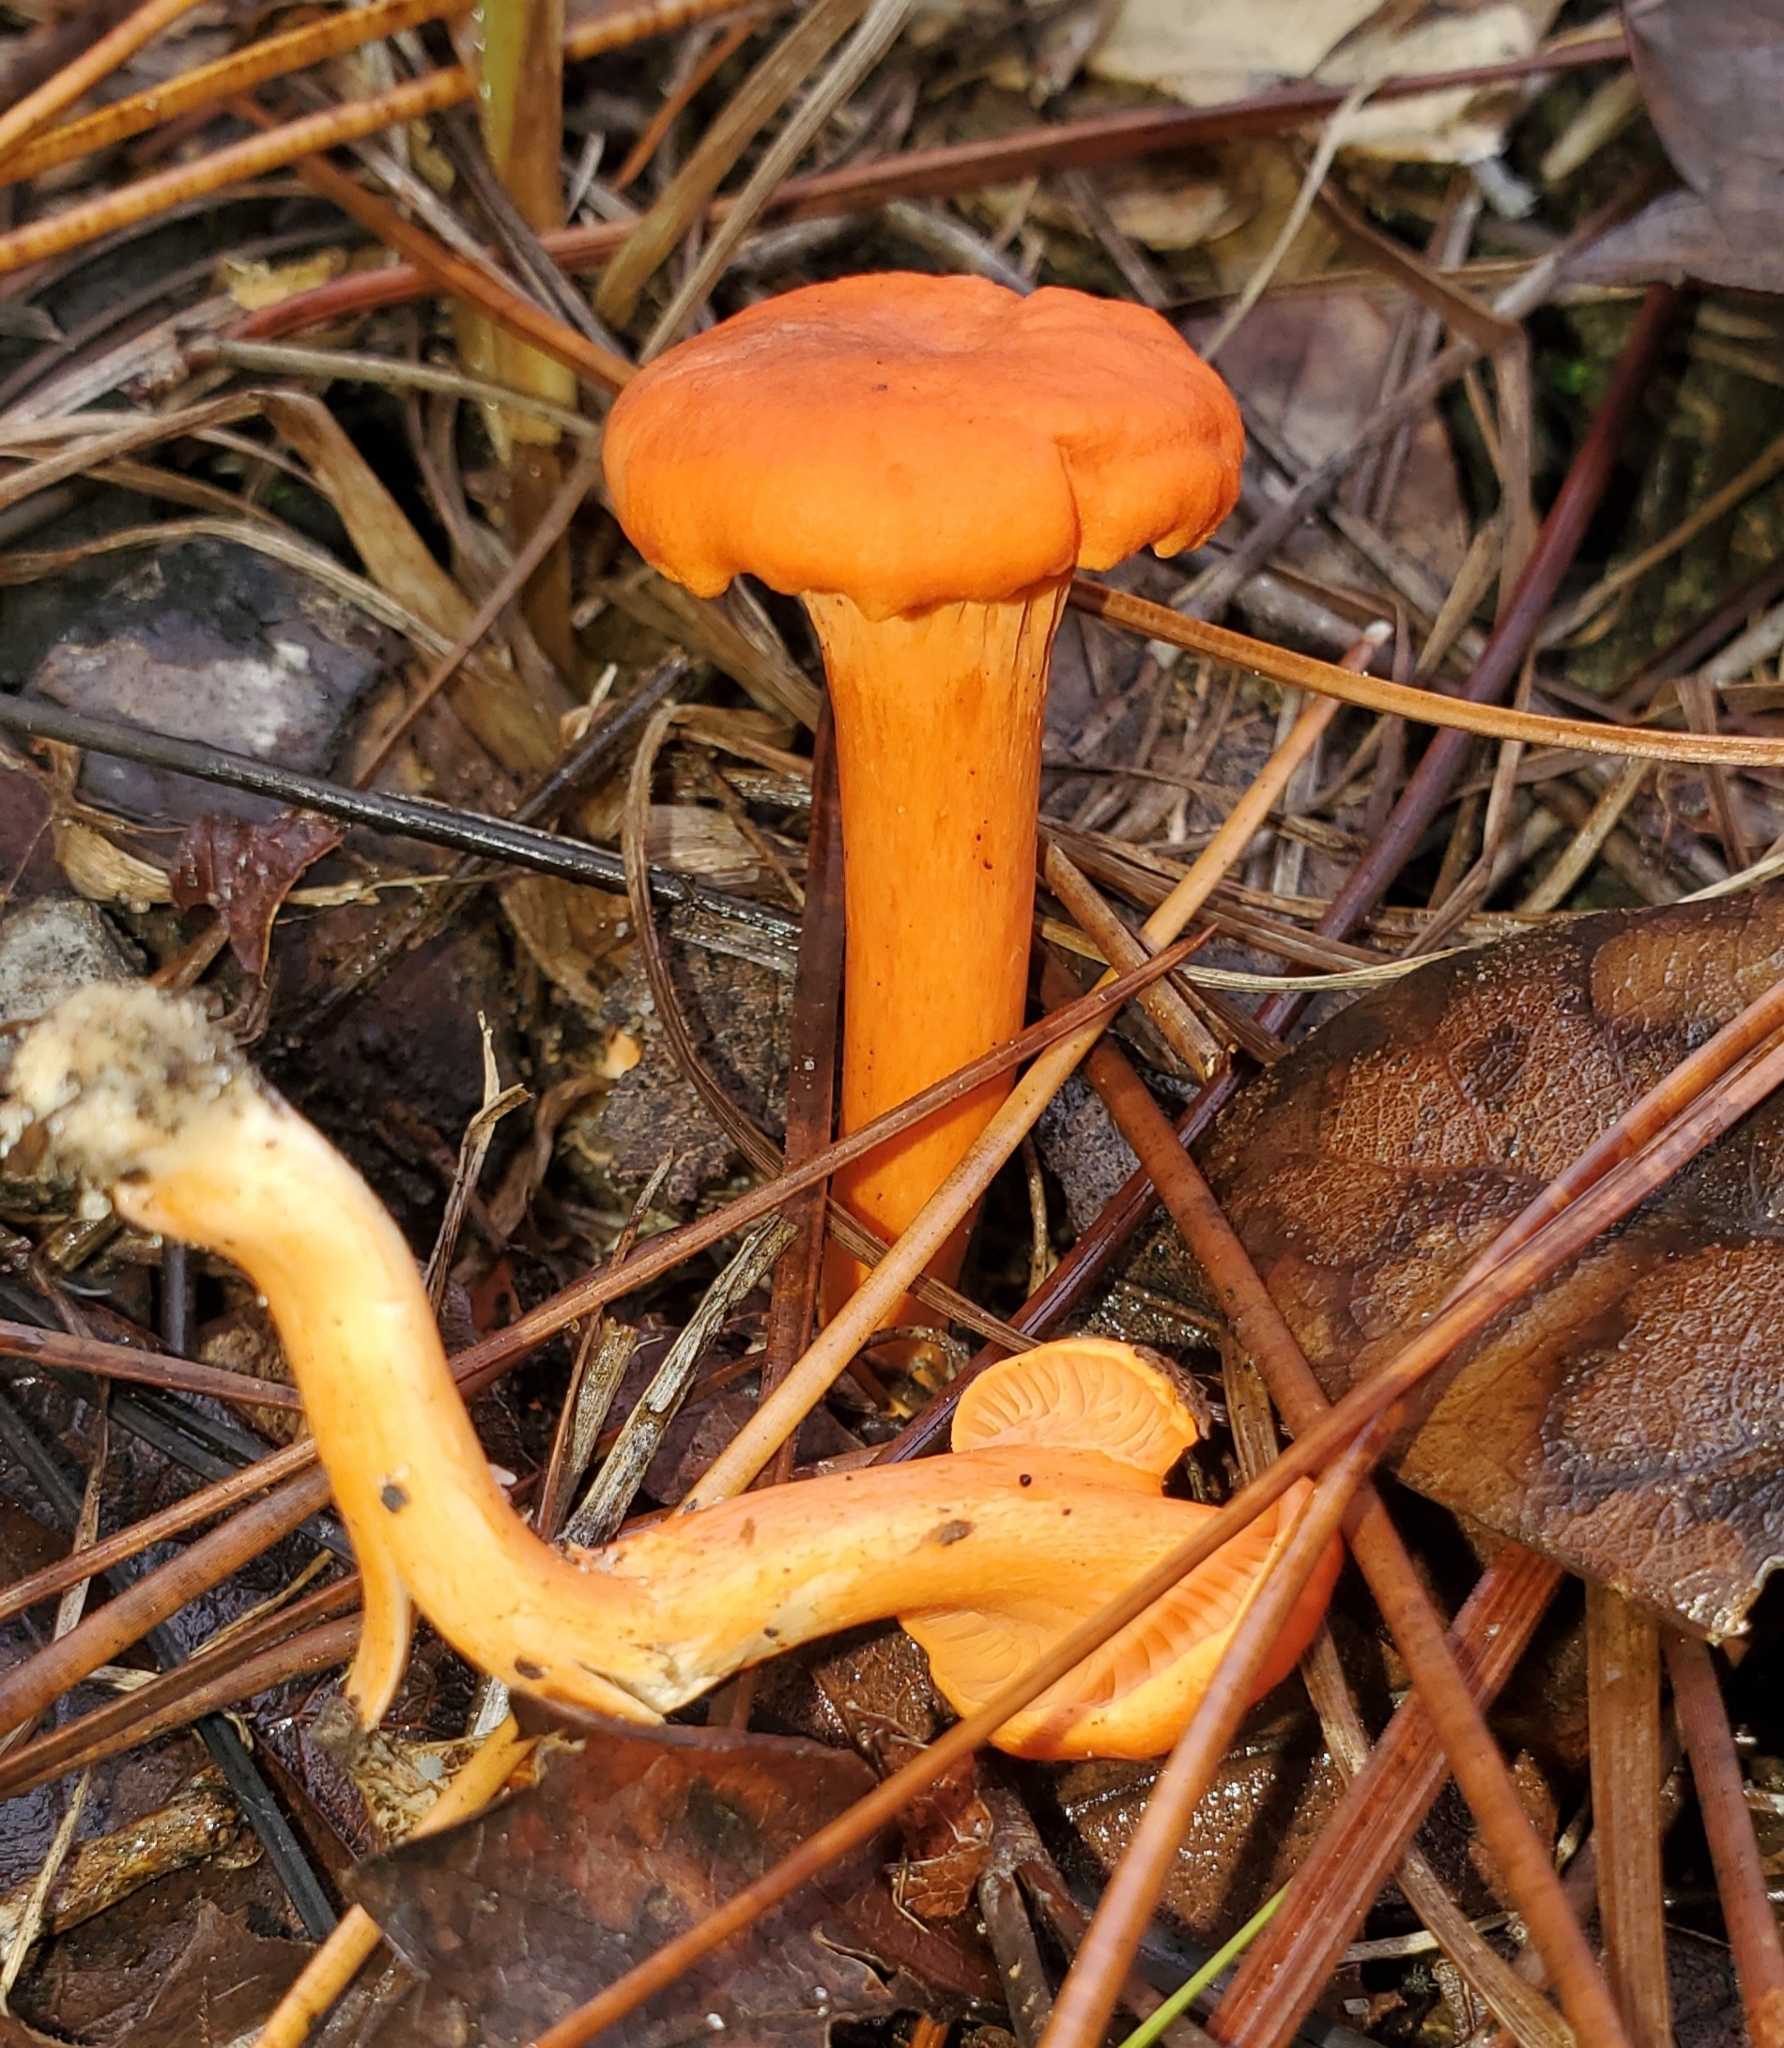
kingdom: Fungi
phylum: Basidiomycota
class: Agaricomycetes
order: Cantharellales
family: Hydnaceae
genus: Cantharellus
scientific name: Cantharellus cinnabarinus
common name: Cinnabar chanterelle
